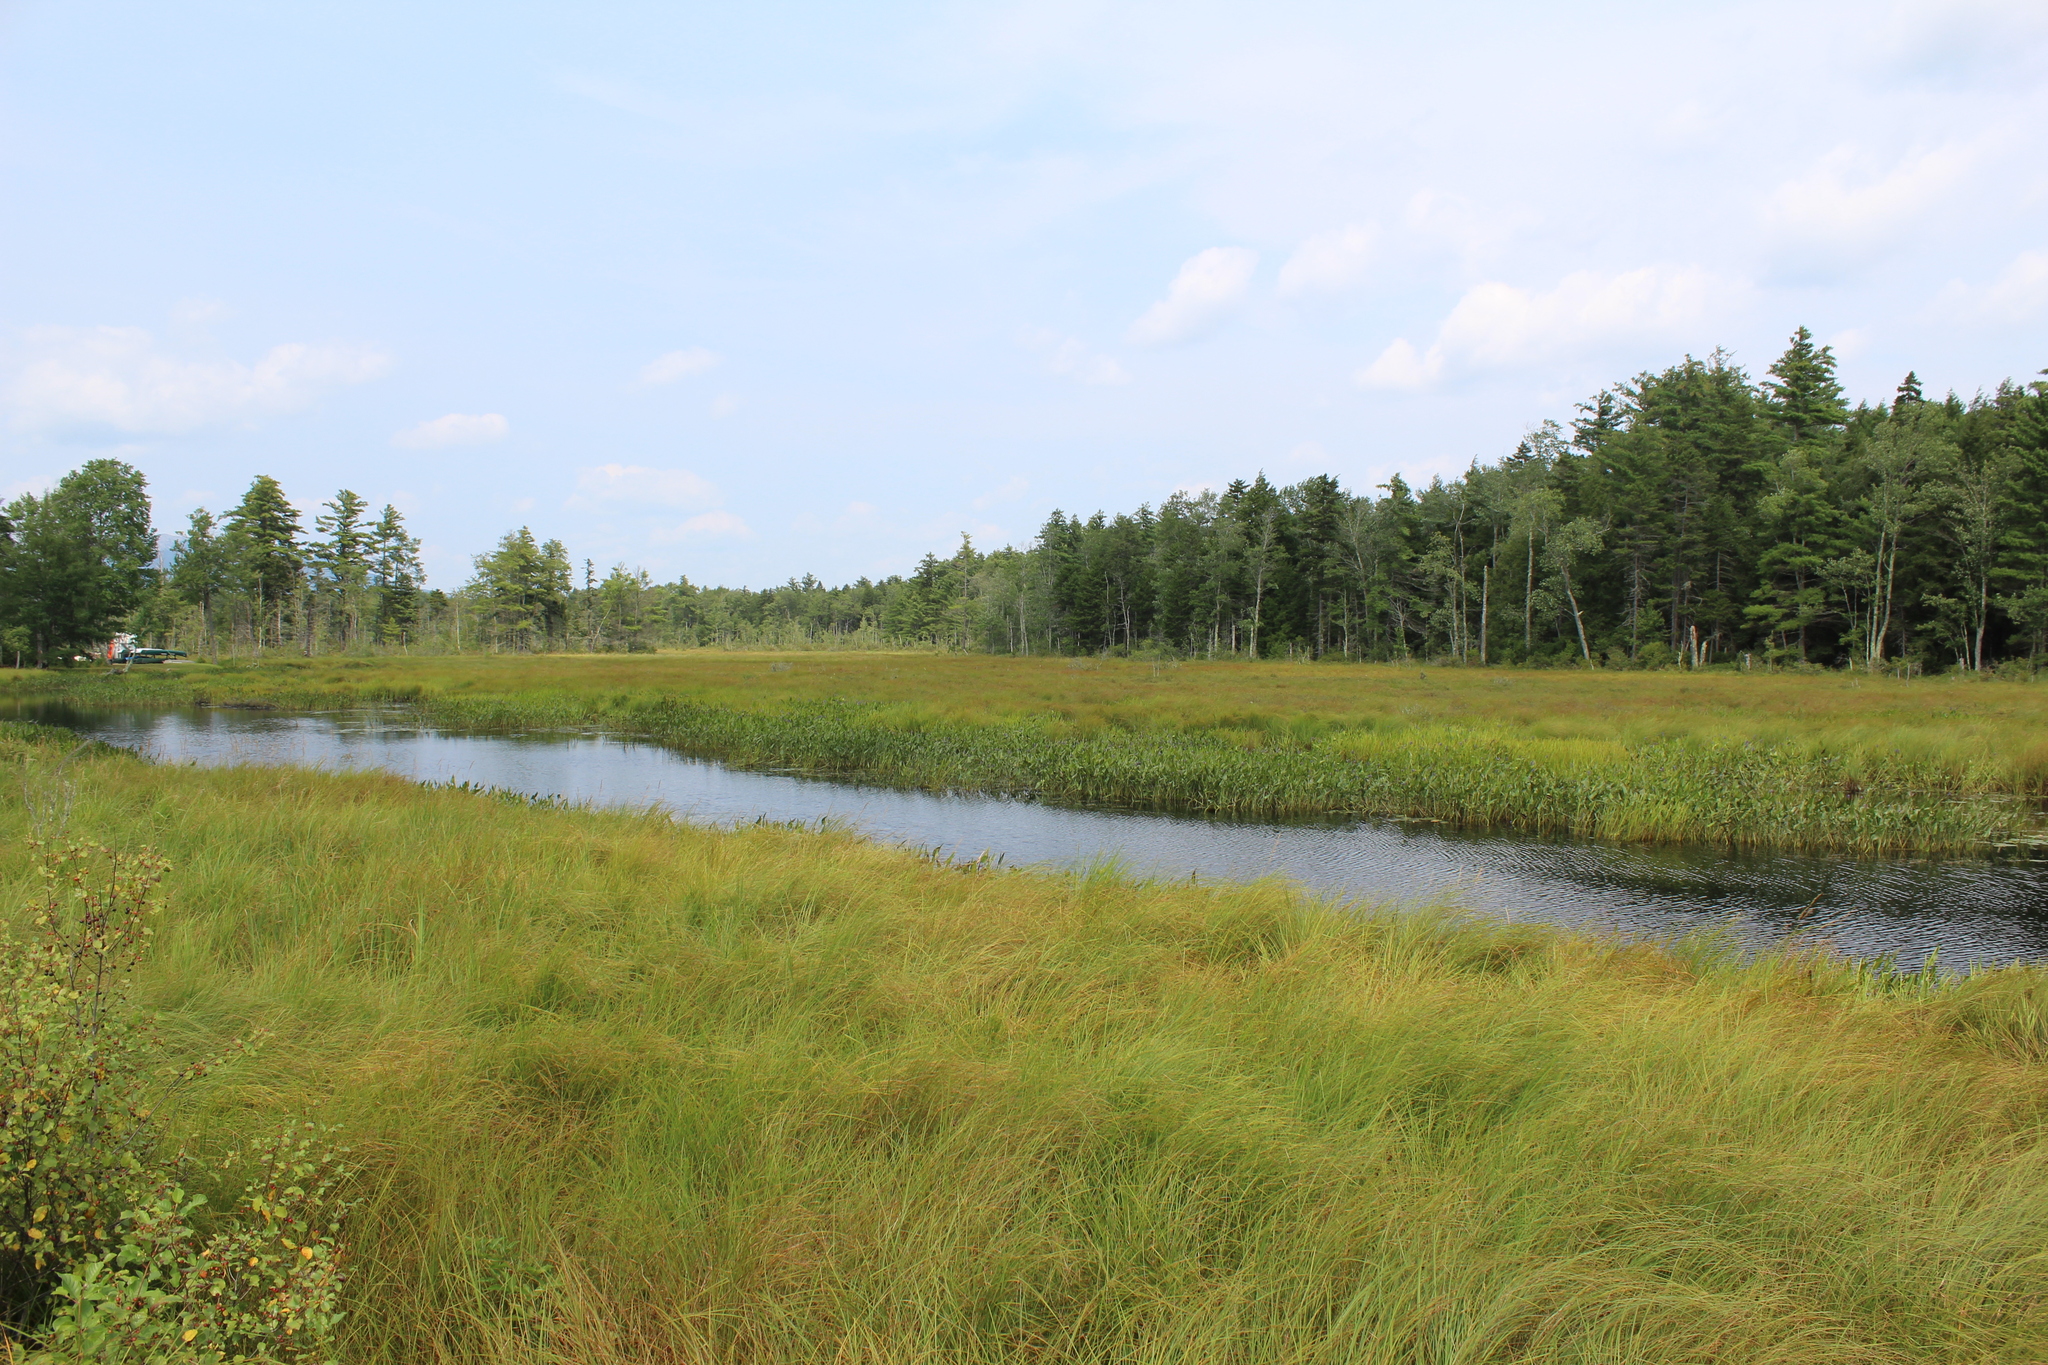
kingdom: Plantae
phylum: Tracheophyta
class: Liliopsida
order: Commelinales
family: Pontederiaceae
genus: Pontederia
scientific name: Pontederia cordata
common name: Pickerelweed
